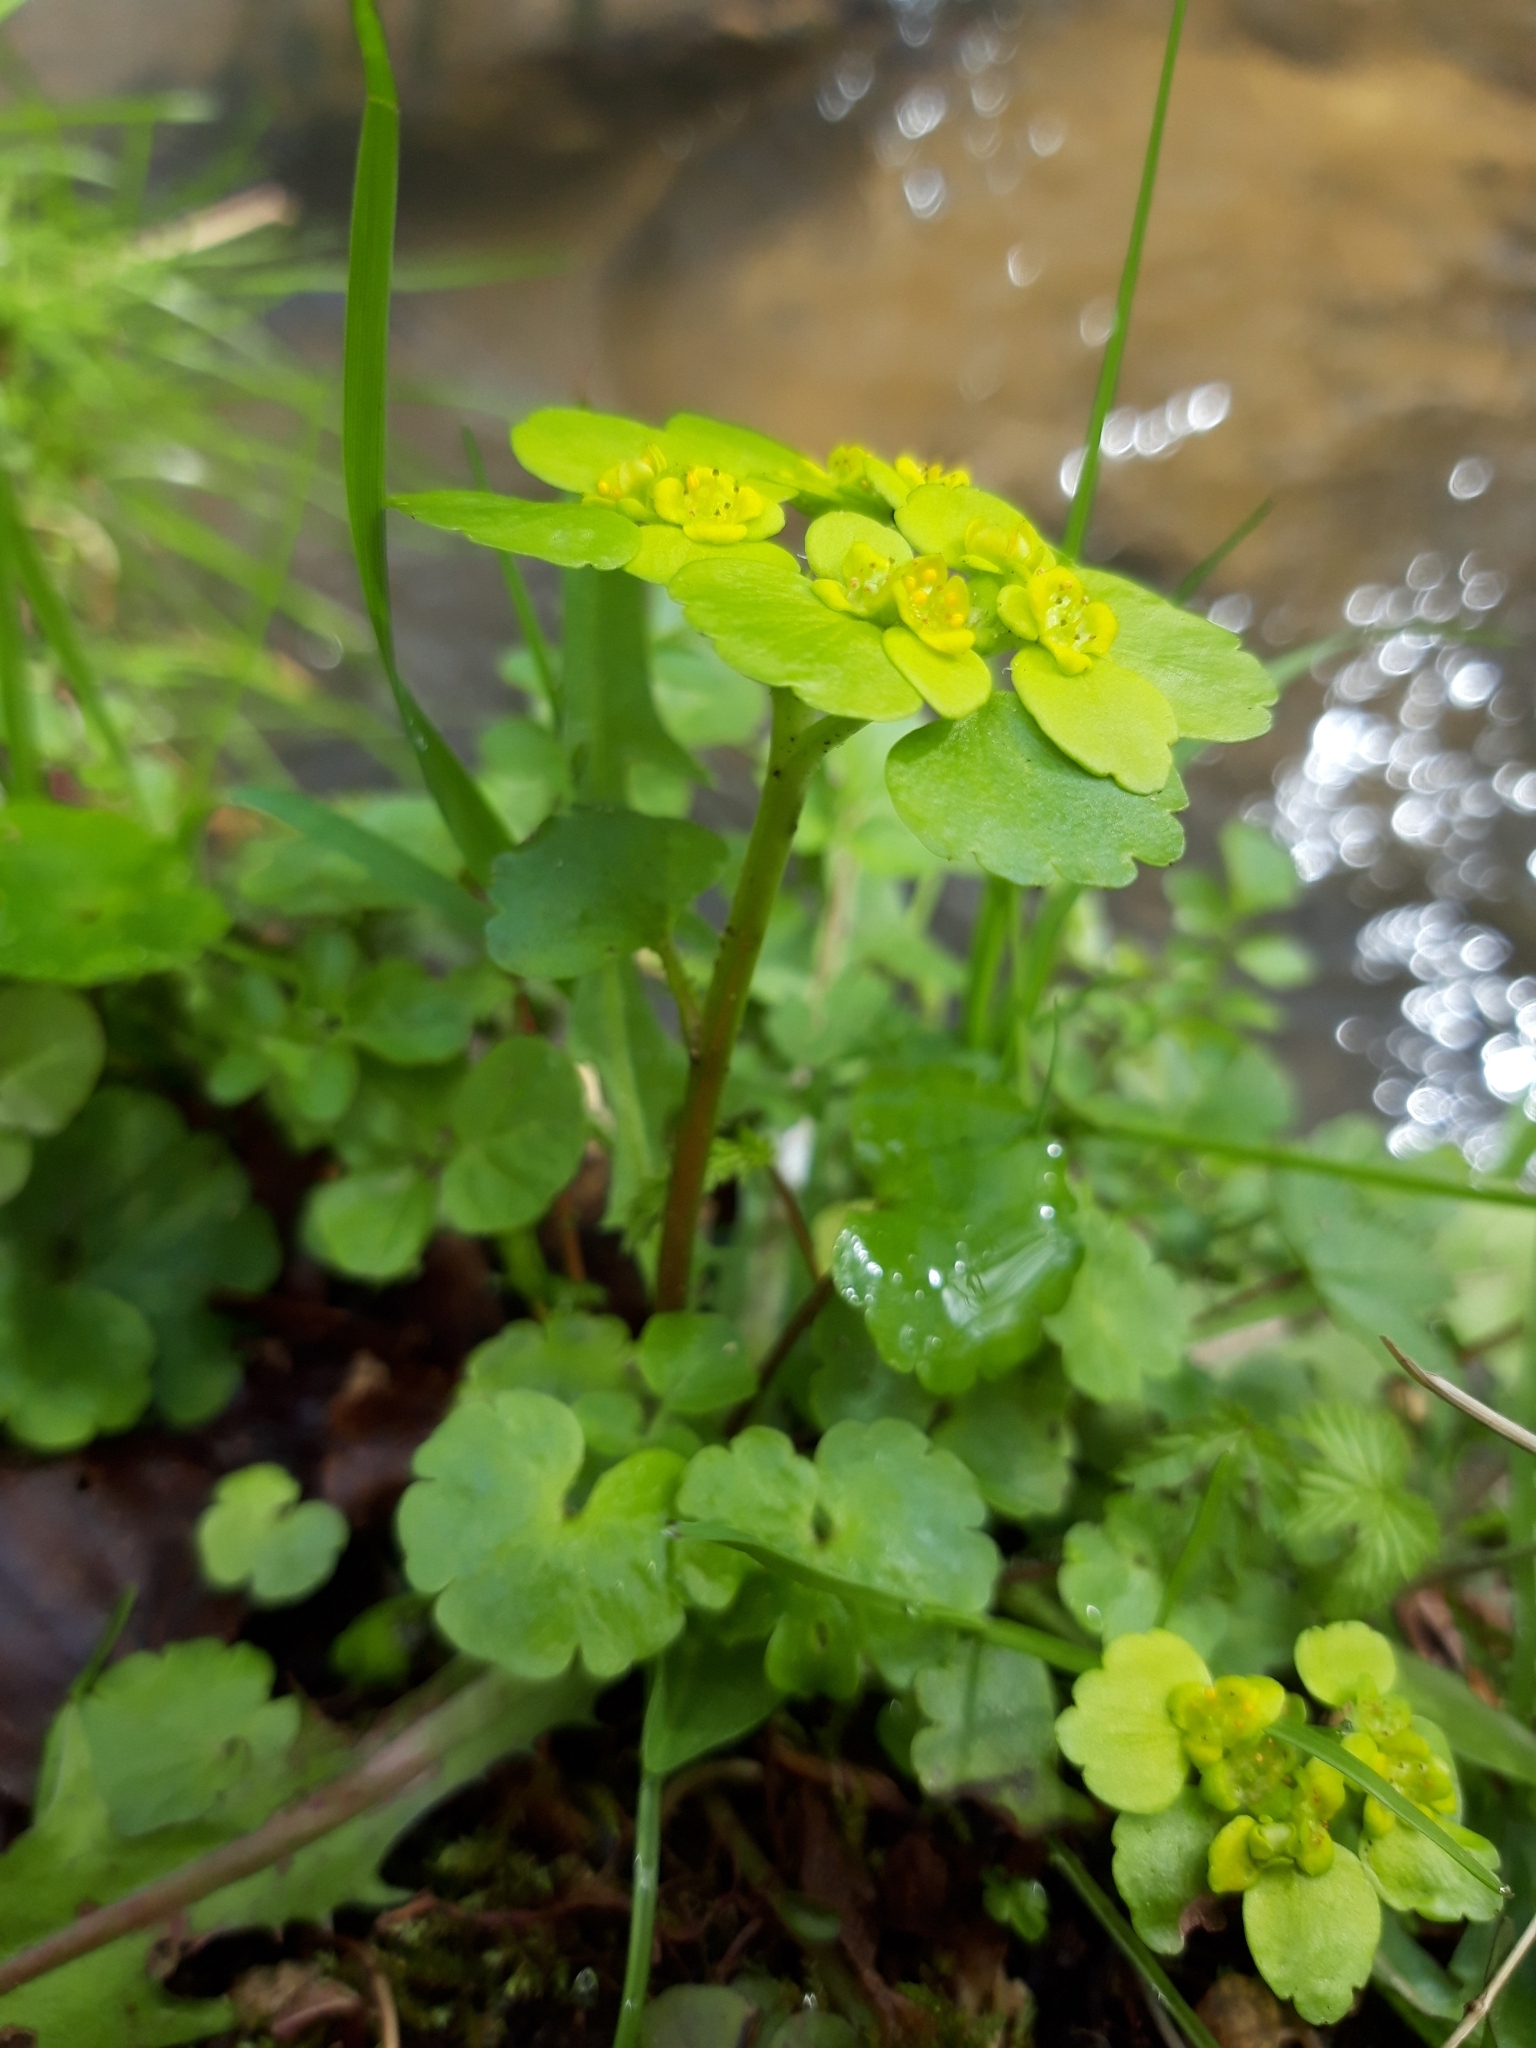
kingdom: Plantae
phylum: Tracheophyta
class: Magnoliopsida
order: Saxifragales
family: Saxifragaceae
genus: Chrysosplenium
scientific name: Chrysosplenium alternifolium
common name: Alternate-leaved golden-saxifrage
